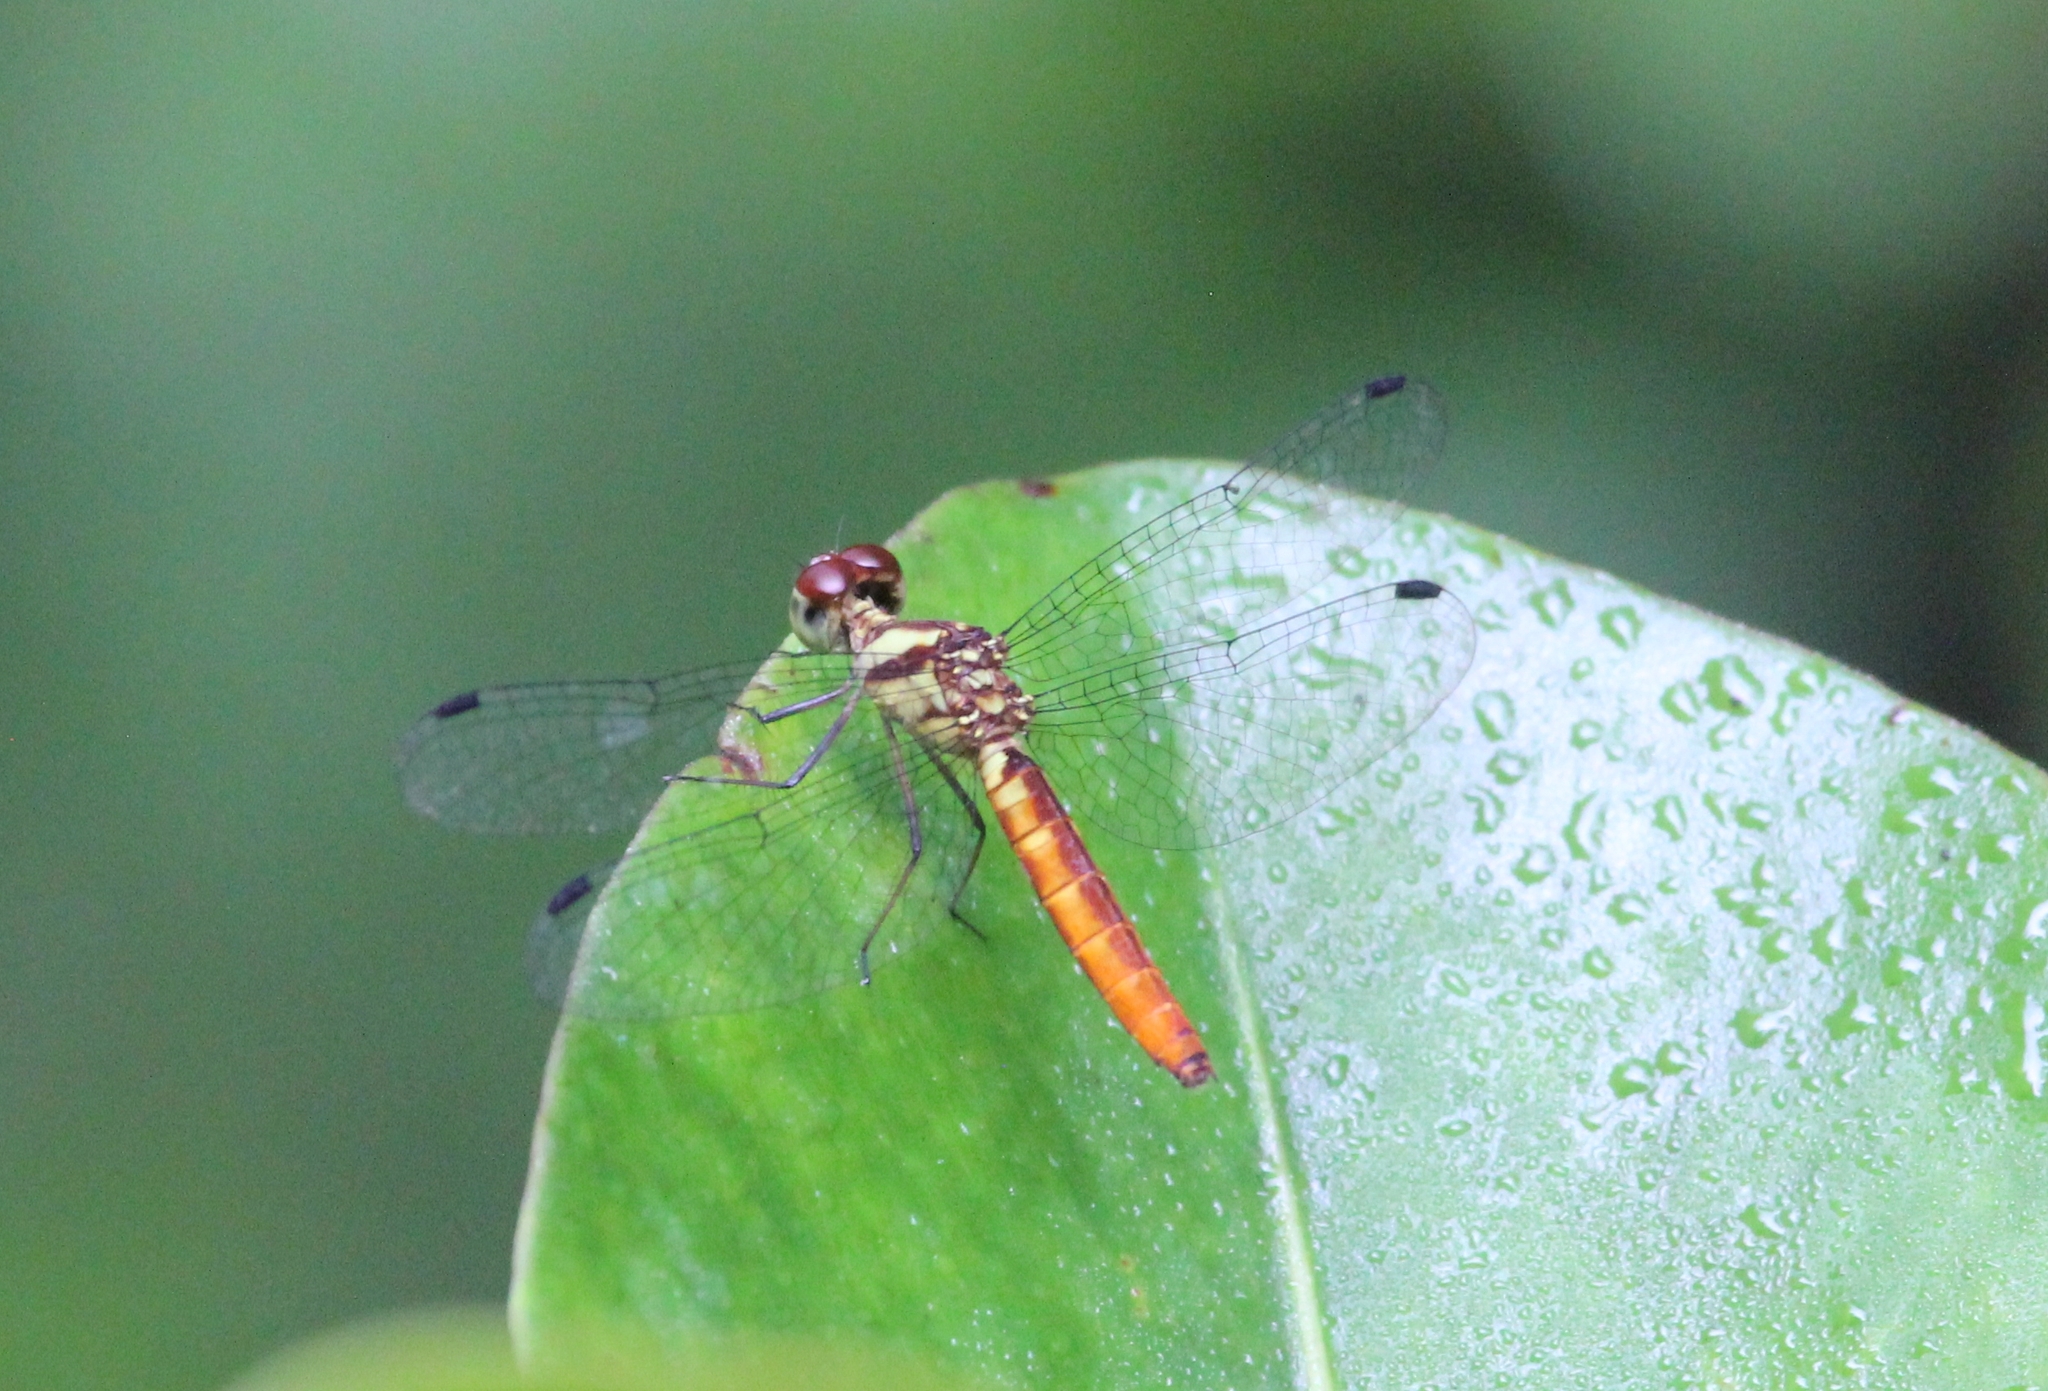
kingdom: Animalia
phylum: Arthropoda
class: Insecta
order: Odonata
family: Libellulidae
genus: Fylgia
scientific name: Fylgia amazonica
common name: White-eyed skimmer
